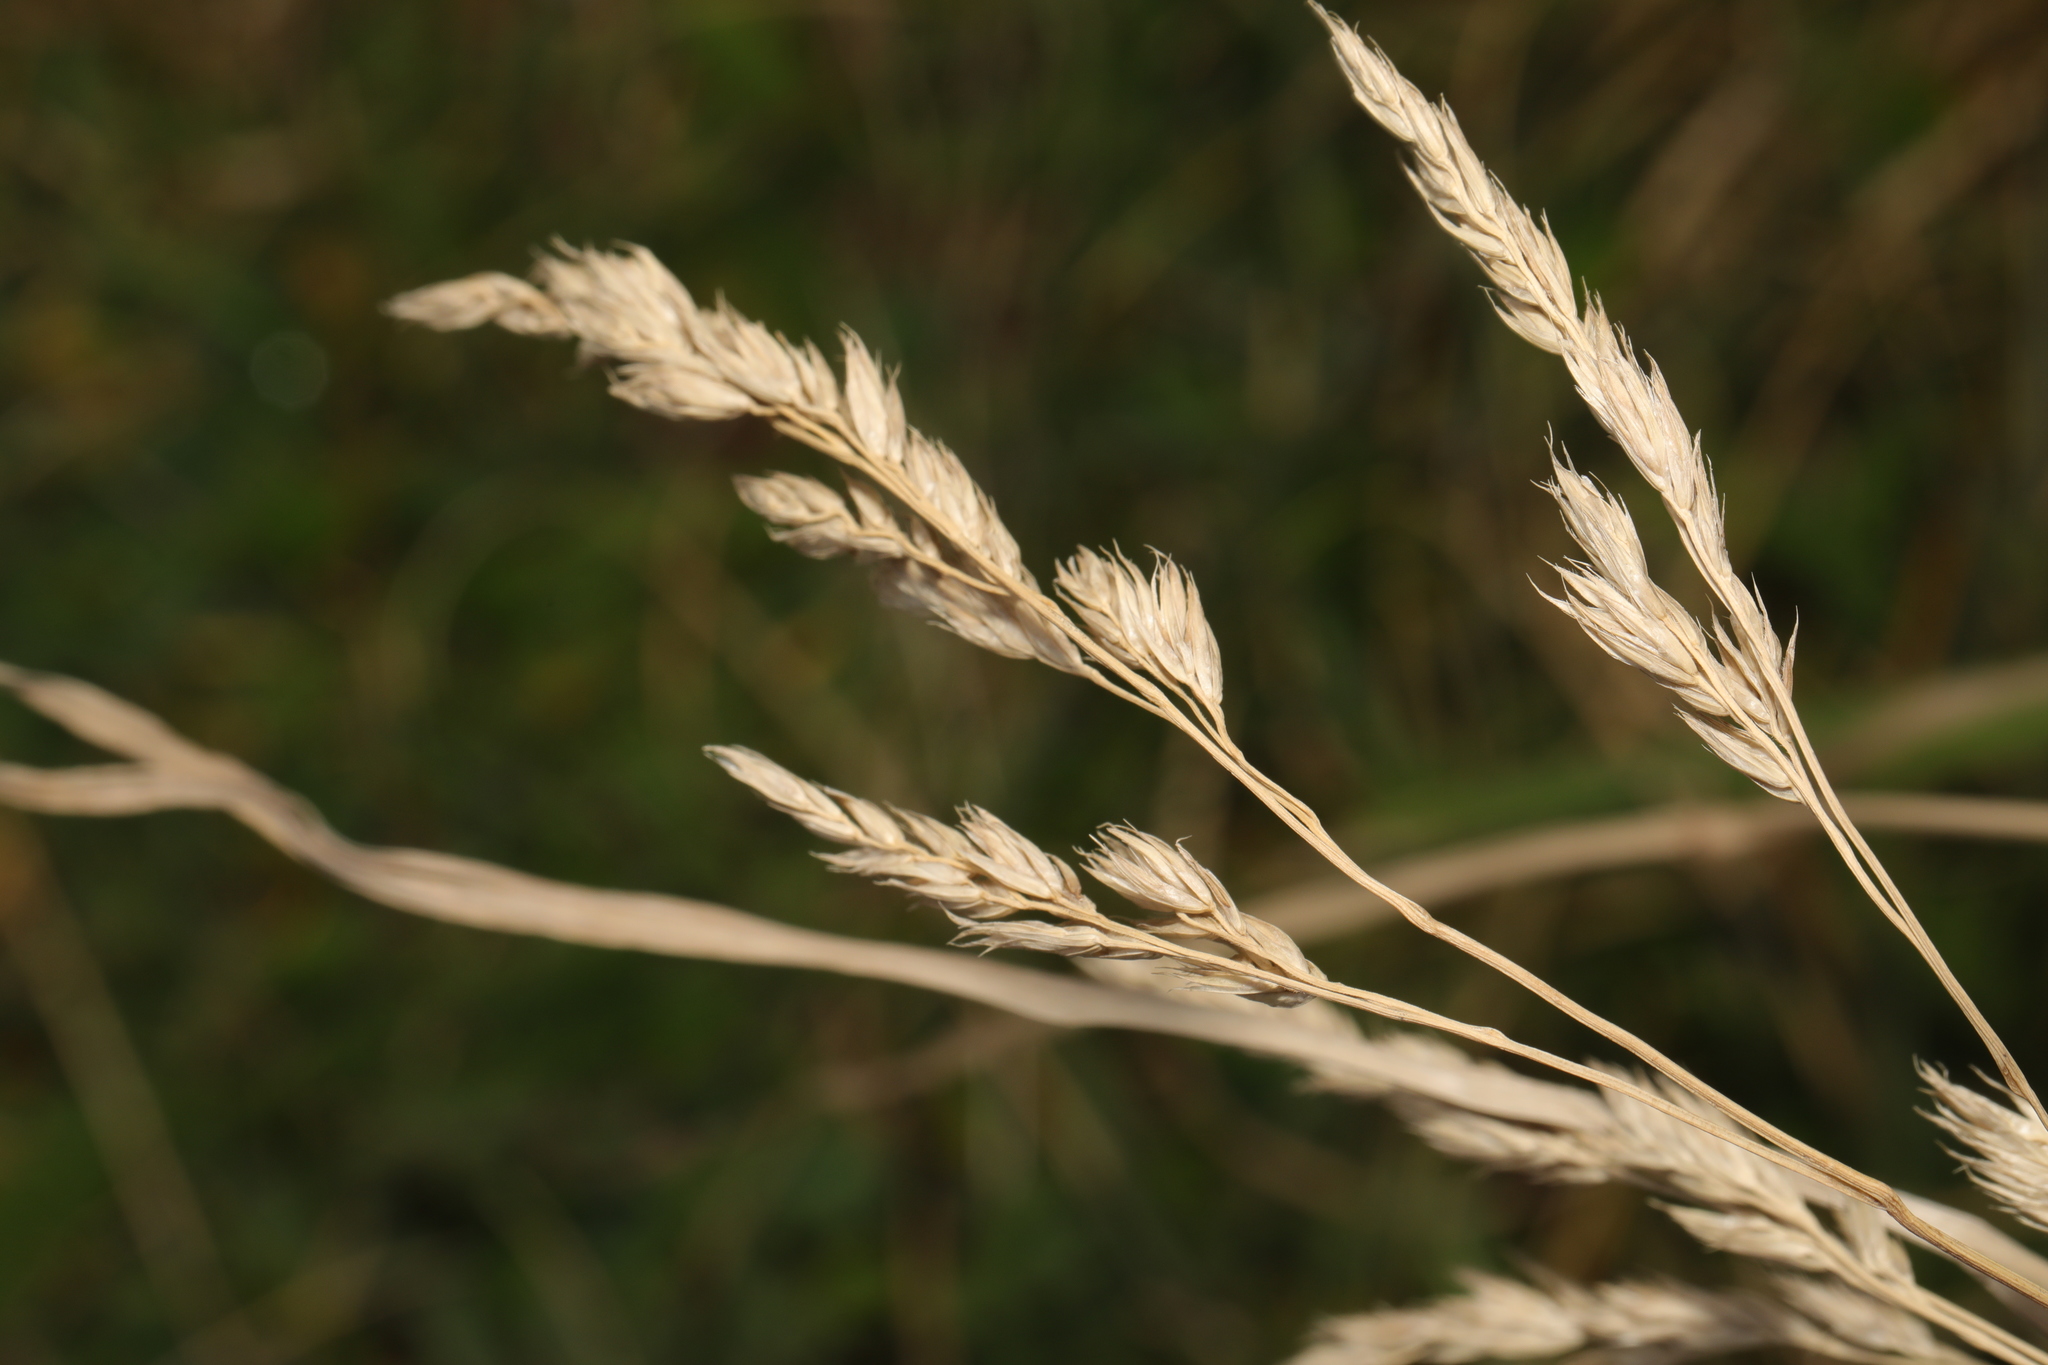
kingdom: Plantae
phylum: Tracheophyta
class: Liliopsida
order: Poales
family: Poaceae
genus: Dactylis
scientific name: Dactylis glomerata
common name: Orchardgrass
